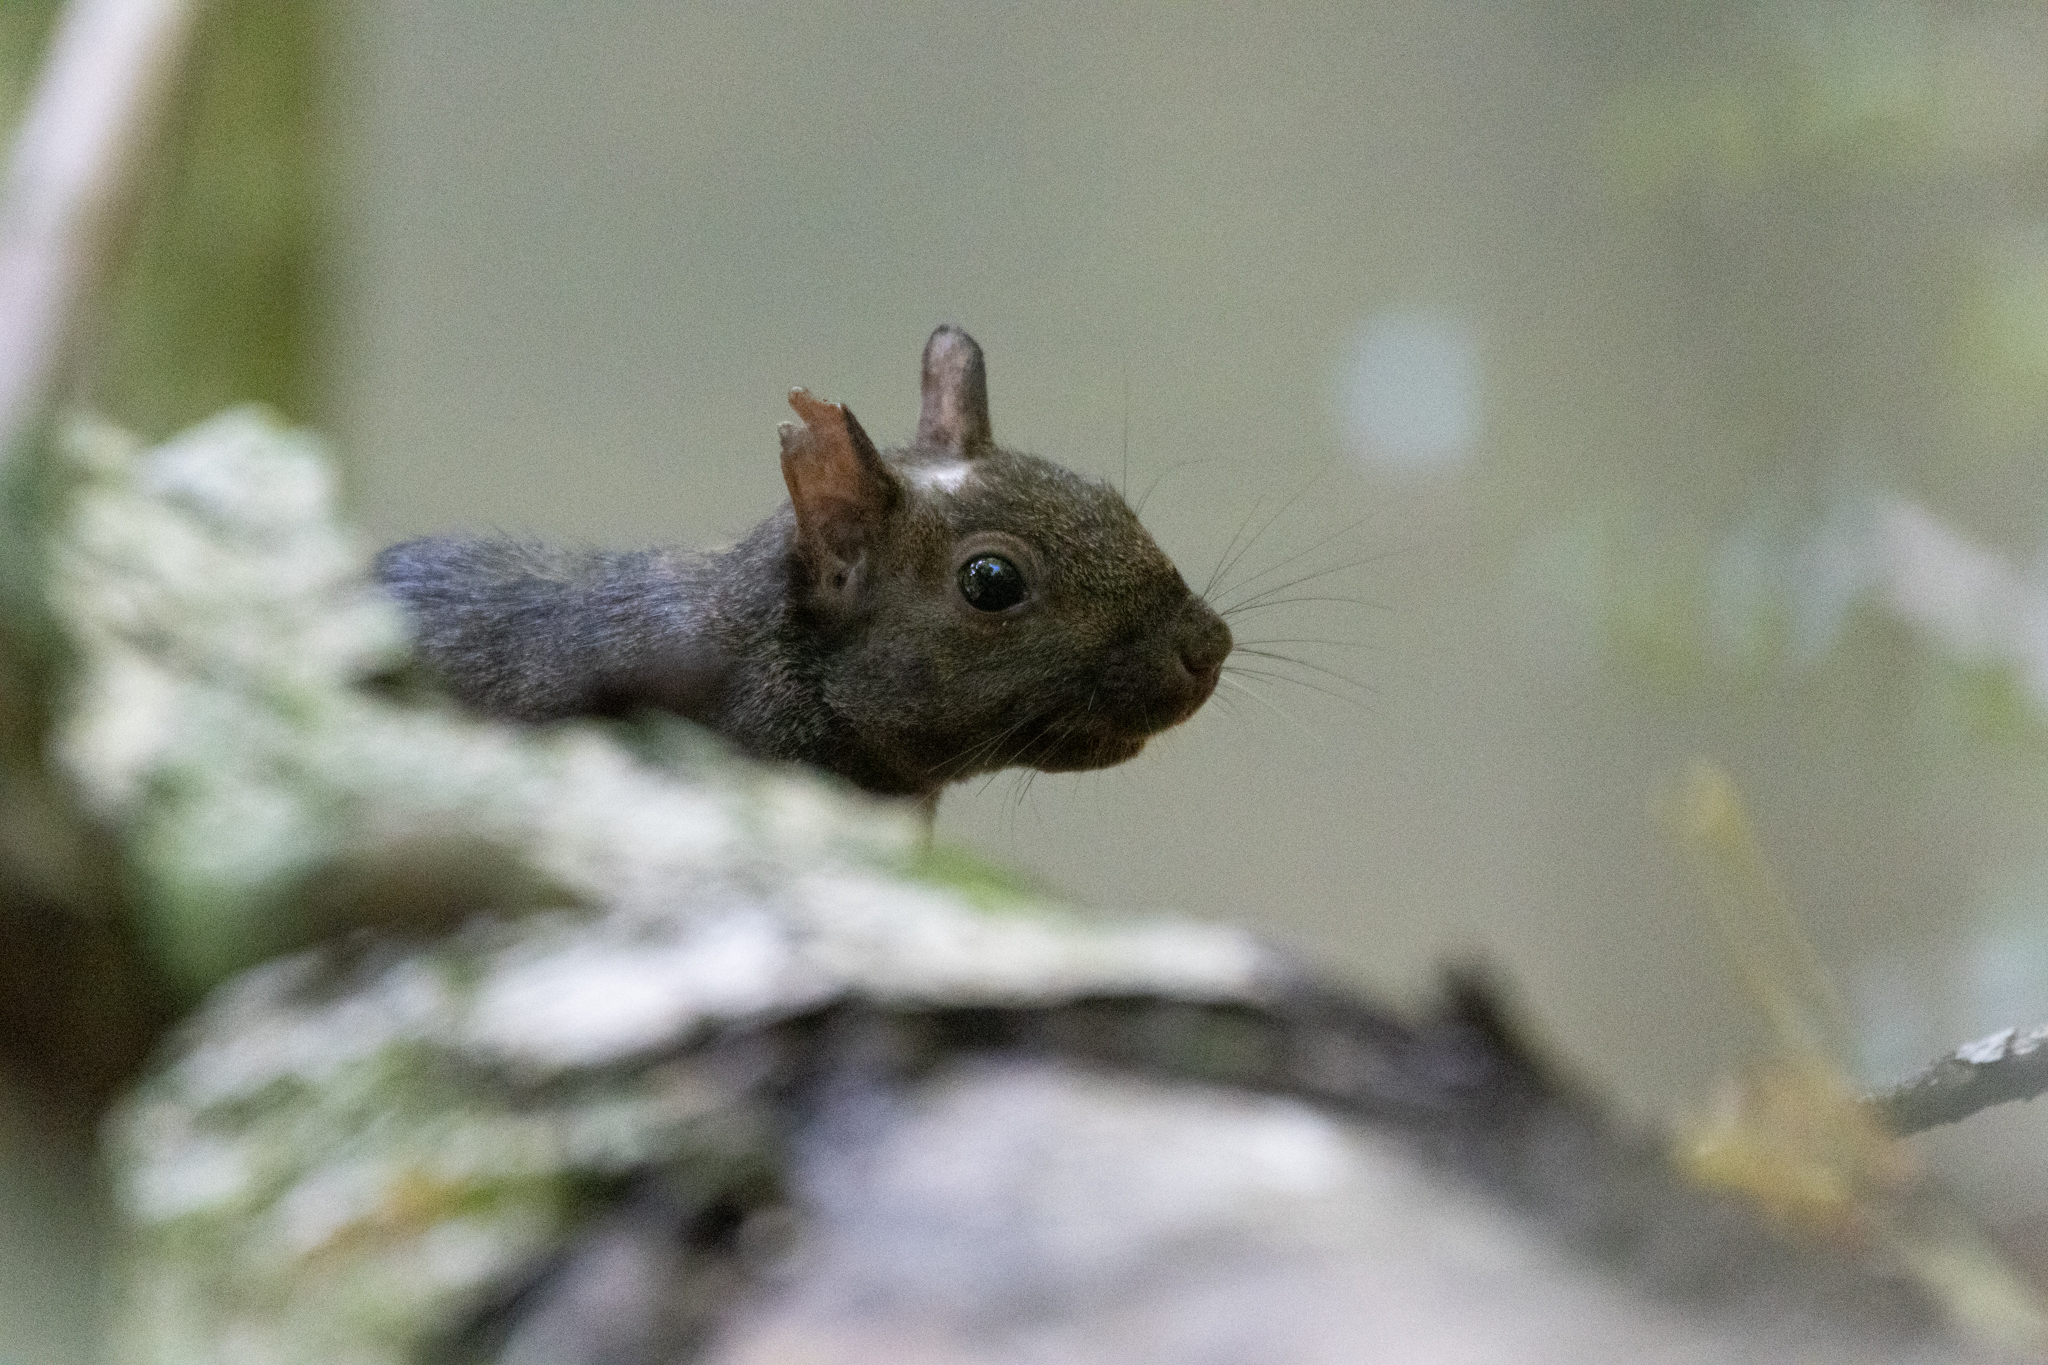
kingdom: Animalia
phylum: Chordata
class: Mammalia
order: Rodentia
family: Sciuridae
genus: Sciurus
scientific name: Sciurus carolinensis
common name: Eastern gray squirrel
